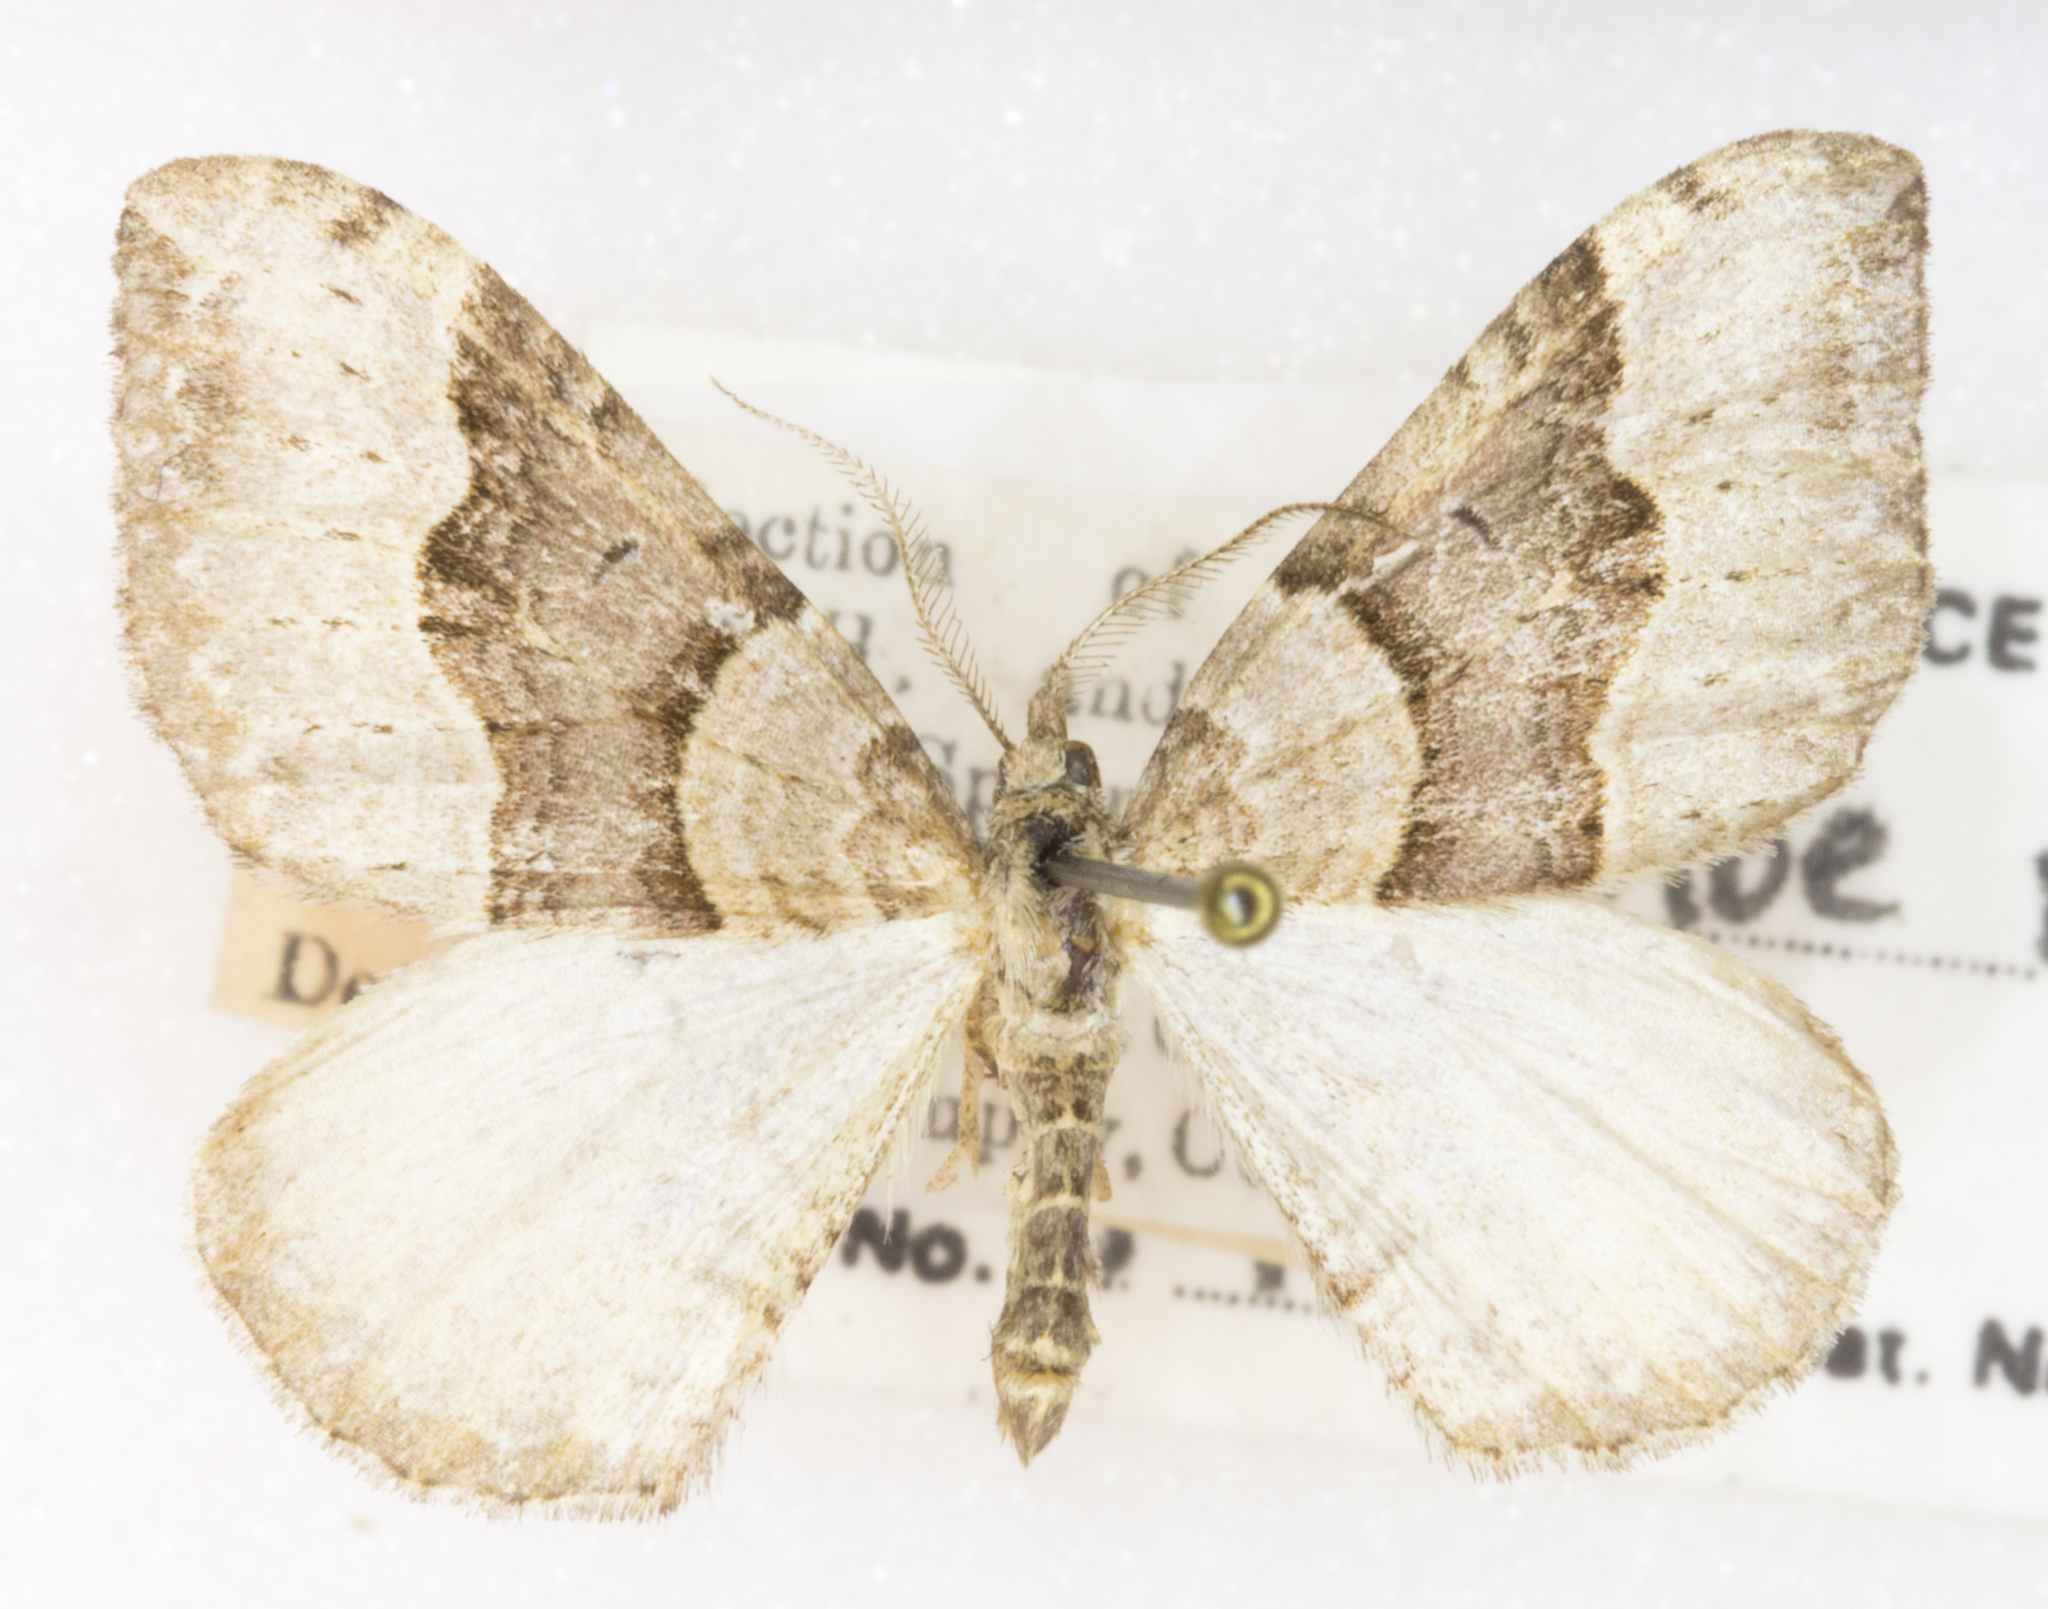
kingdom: Animalia
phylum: Arthropoda
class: Insecta
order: Lepidoptera
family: Geometridae
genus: Xanthorhoe
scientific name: Xanthorhoe decoloraria
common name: Red carpet
